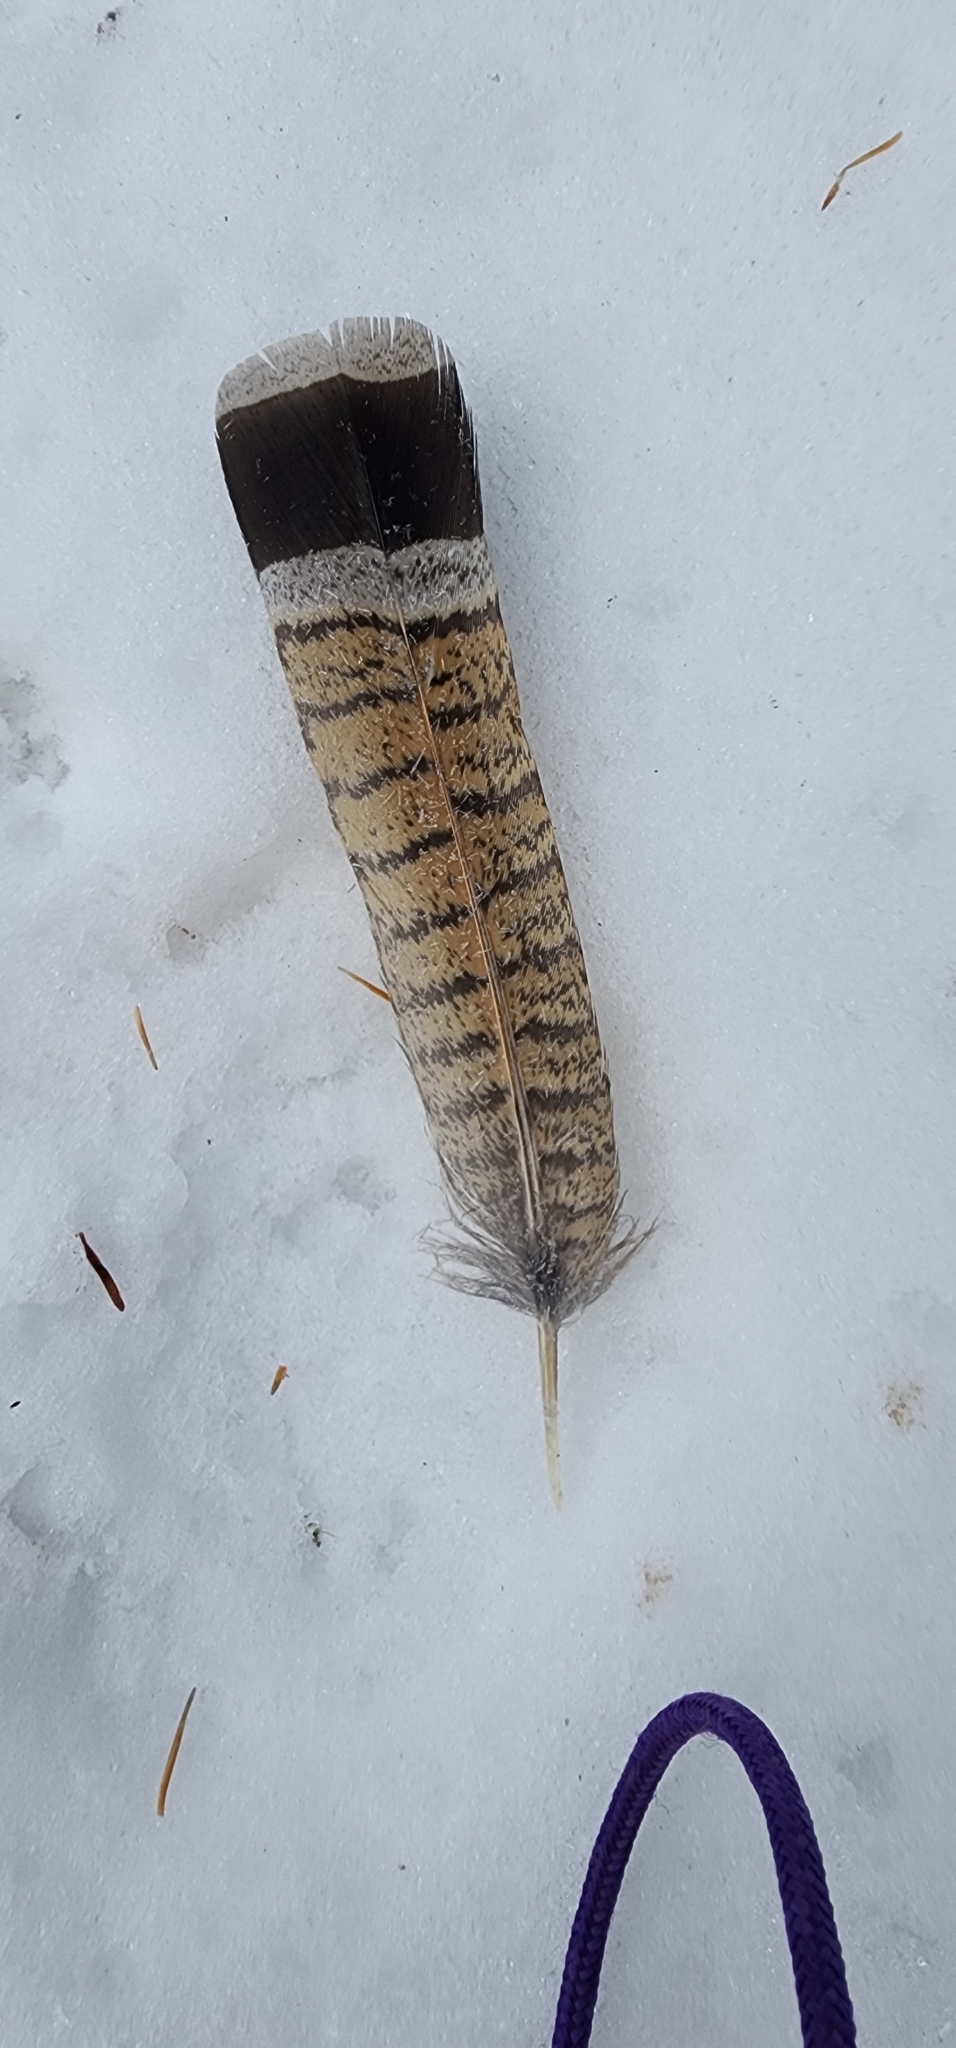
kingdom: Animalia
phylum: Chordata
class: Aves
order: Galliformes
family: Phasianidae
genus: Bonasa
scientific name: Bonasa umbellus
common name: Ruffed grouse
